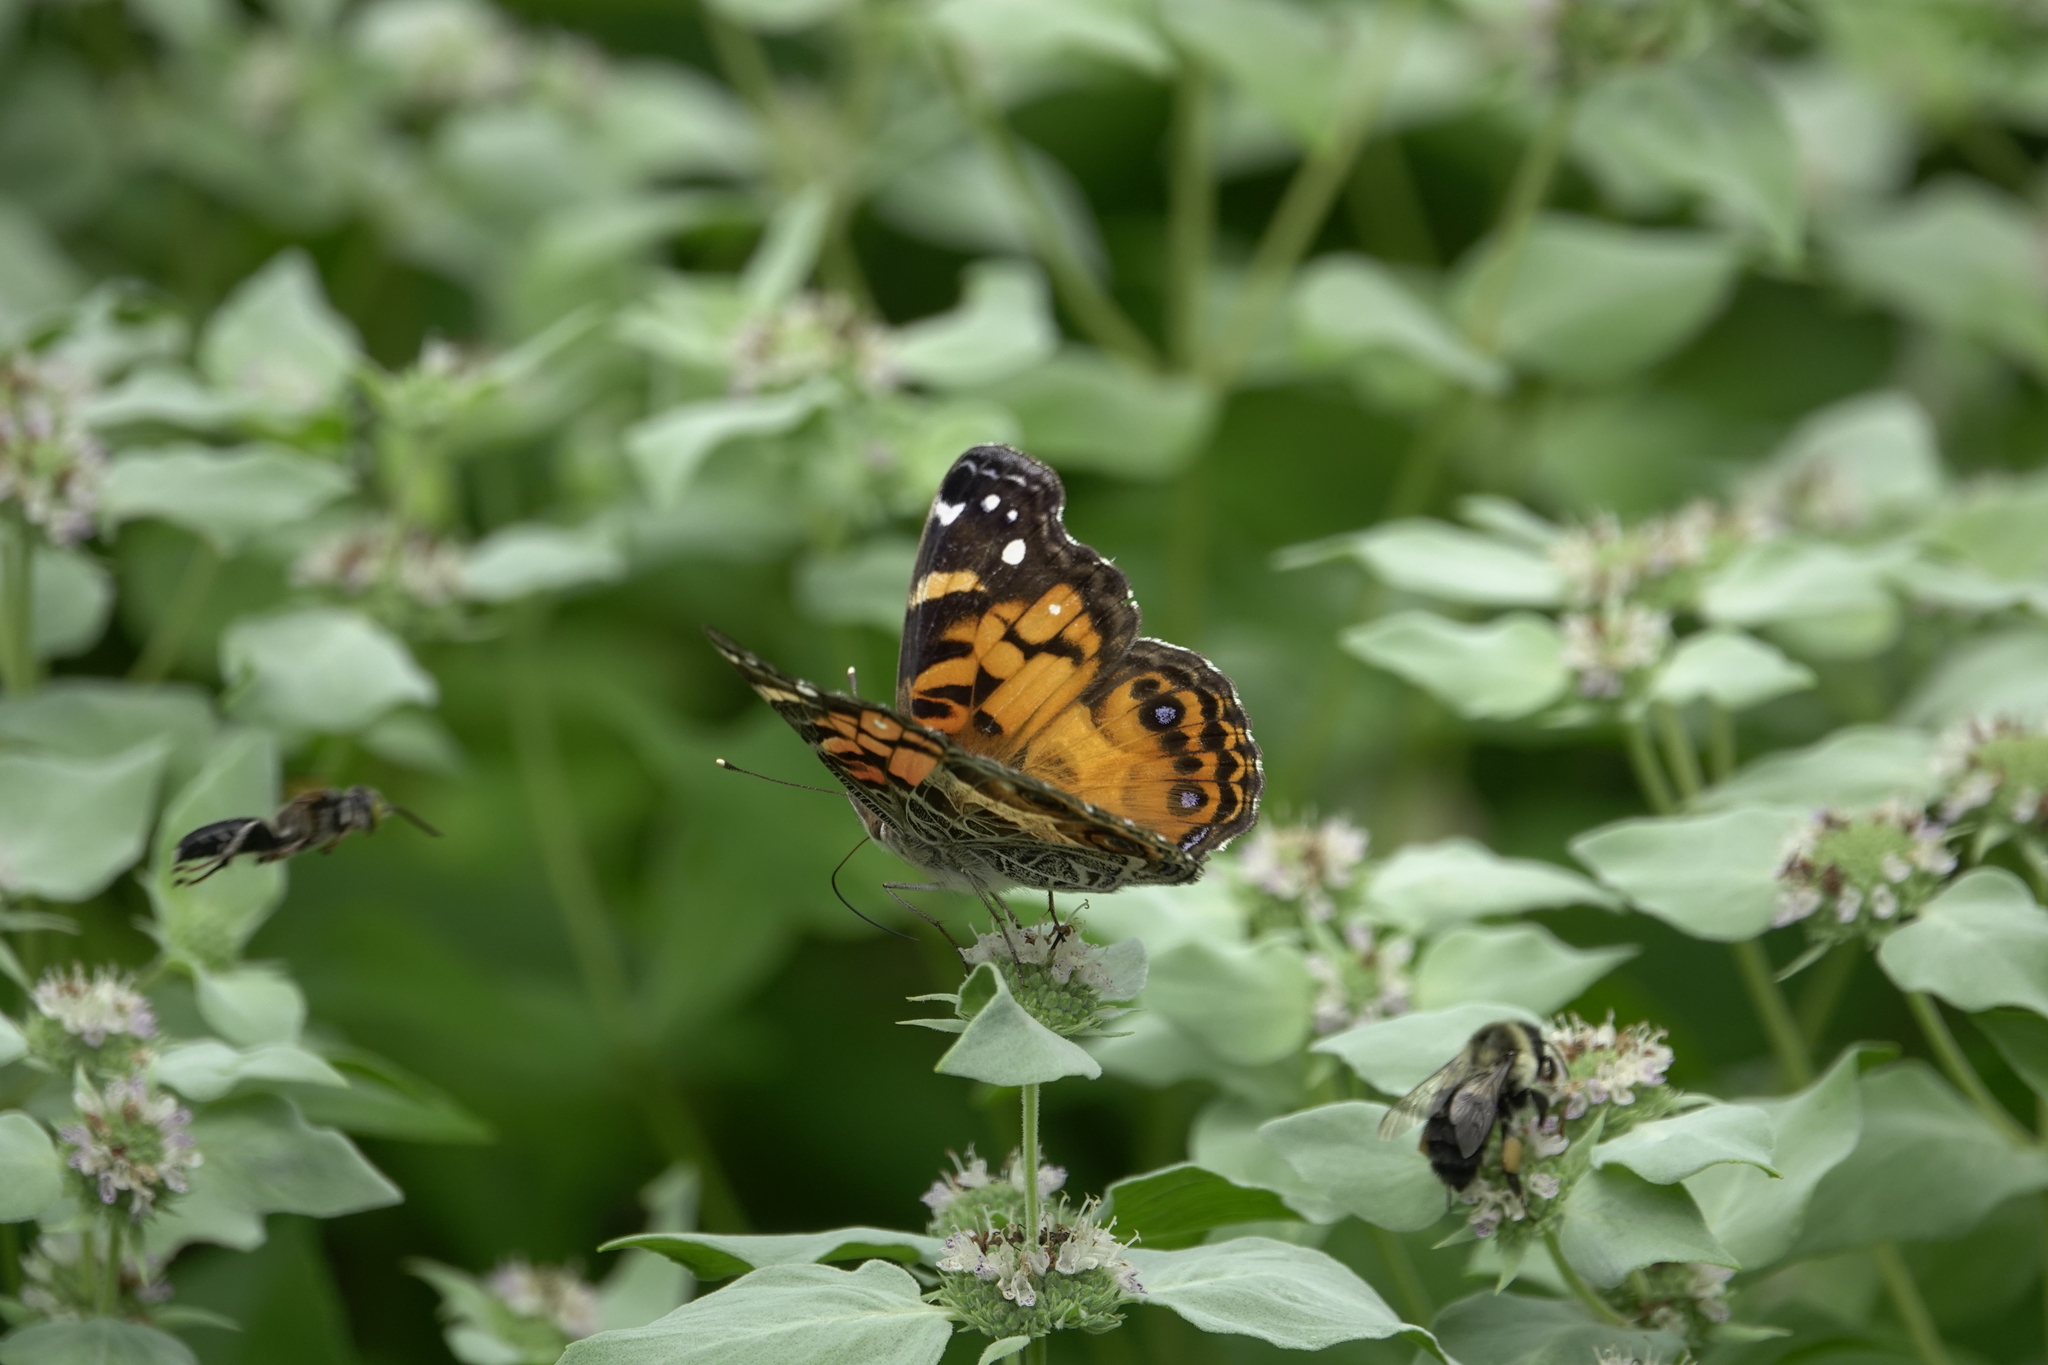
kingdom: Animalia
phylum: Arthropoda
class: Insecta
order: Lepidoptera
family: Nymphalidae
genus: Vanessa
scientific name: Vanessa virginiensis
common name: American lady
